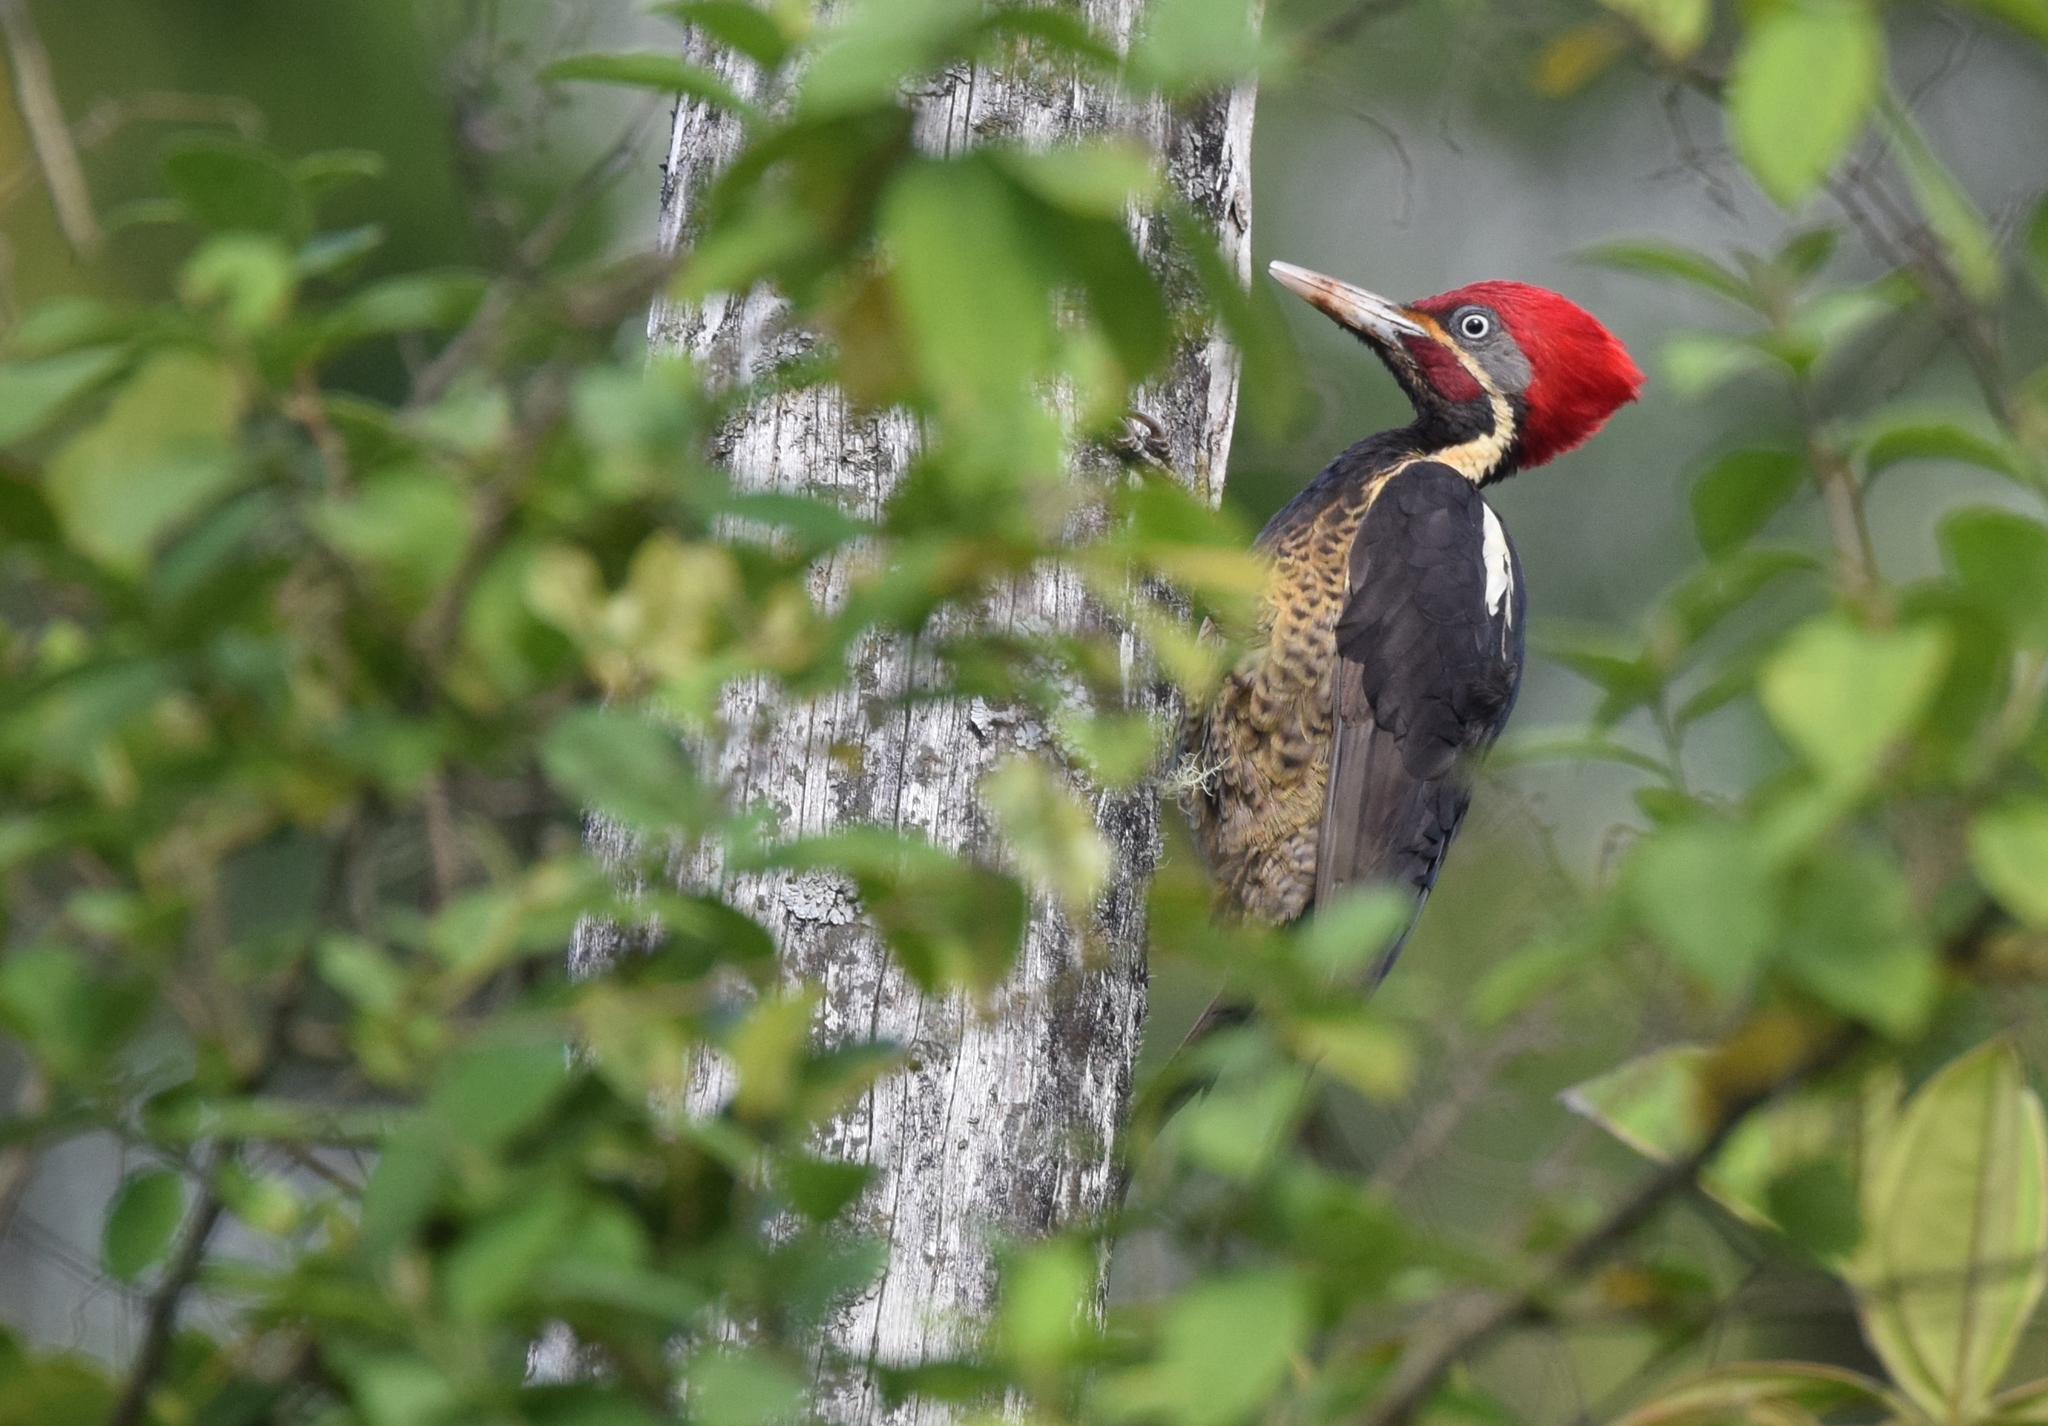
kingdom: Animalia
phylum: Chordata
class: Aves
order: Piciformes
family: Picidae
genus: Dryocopus
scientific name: Dryocopus lineatus
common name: Lineated woodpecker
